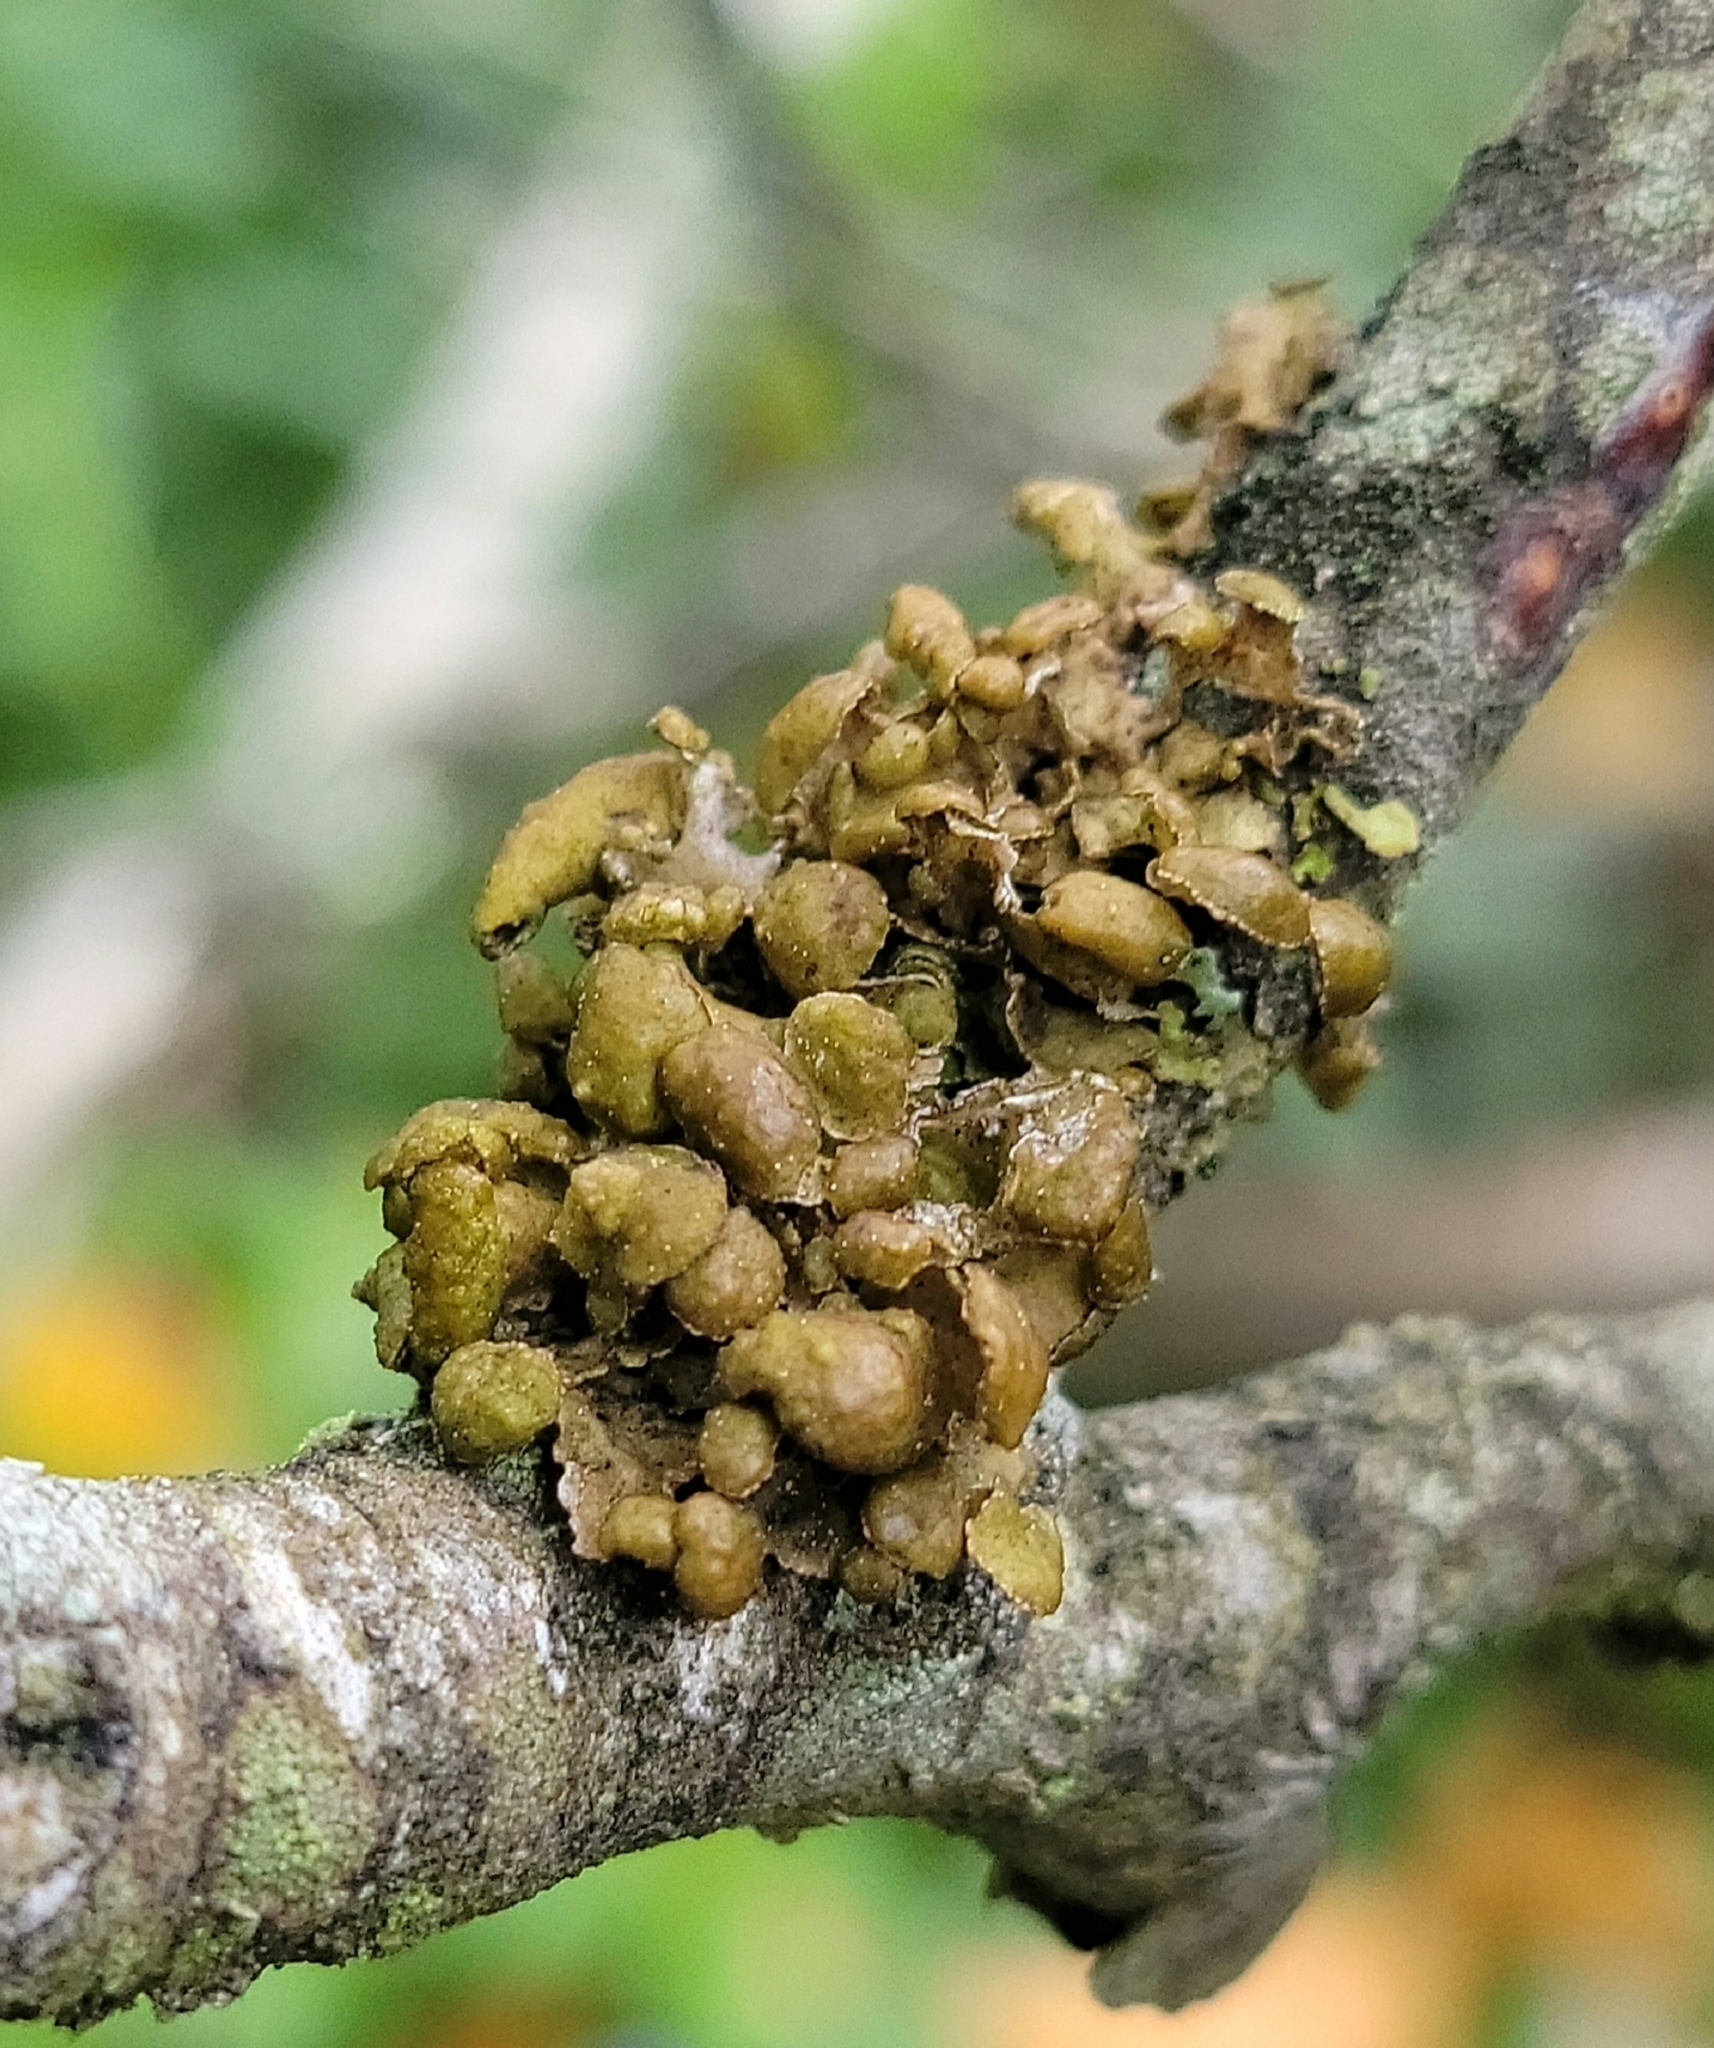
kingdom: Fungi
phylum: Ascomycota
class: Lecanoromycetes
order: Lecanorales
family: Parmeliaceae
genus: Cetraria
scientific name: Cetraria sepincola
